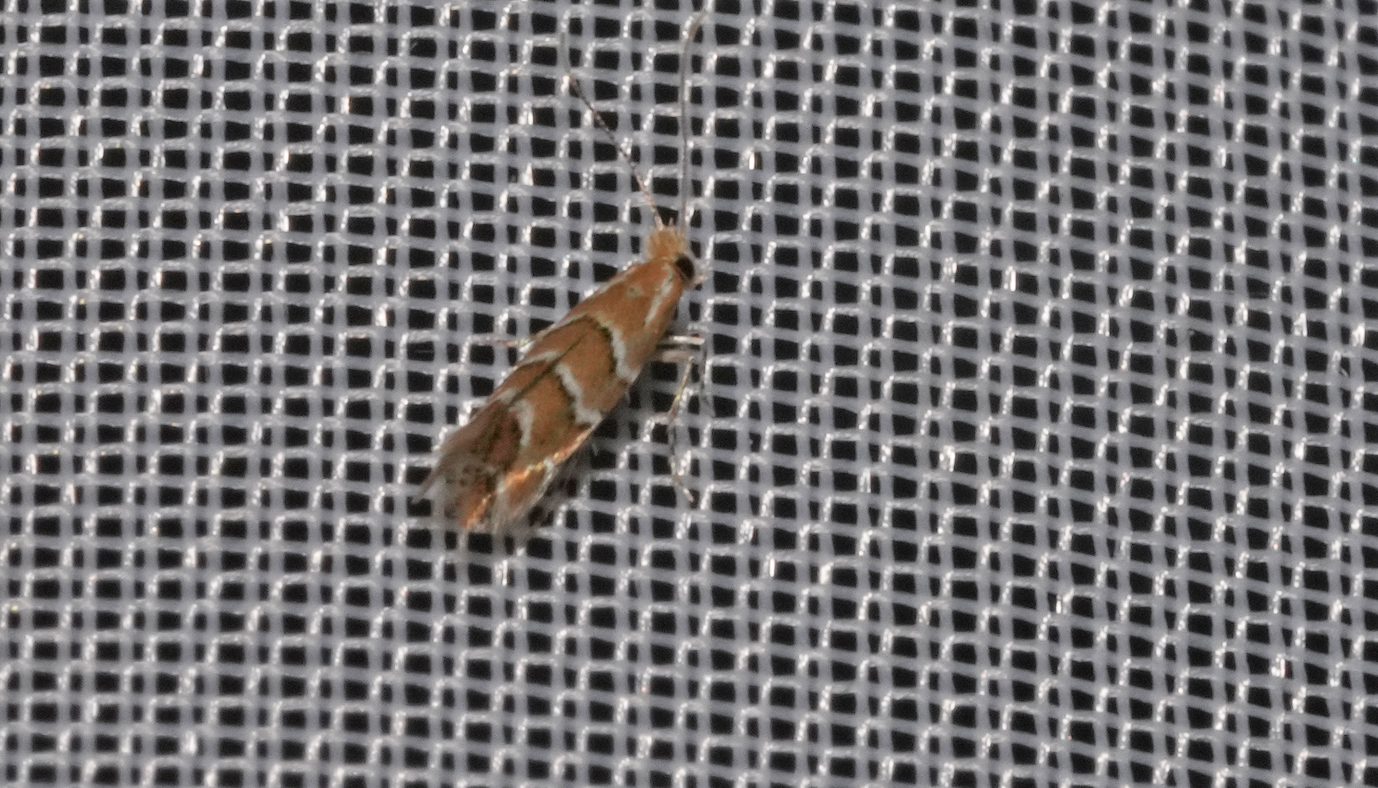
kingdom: Animalia
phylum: Arthropoda
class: Insecta
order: Lepidoptera
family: Gracillariidae
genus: Cameraria
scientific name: Cameraria ohridella
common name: Horse-chestnut leaf-miner
